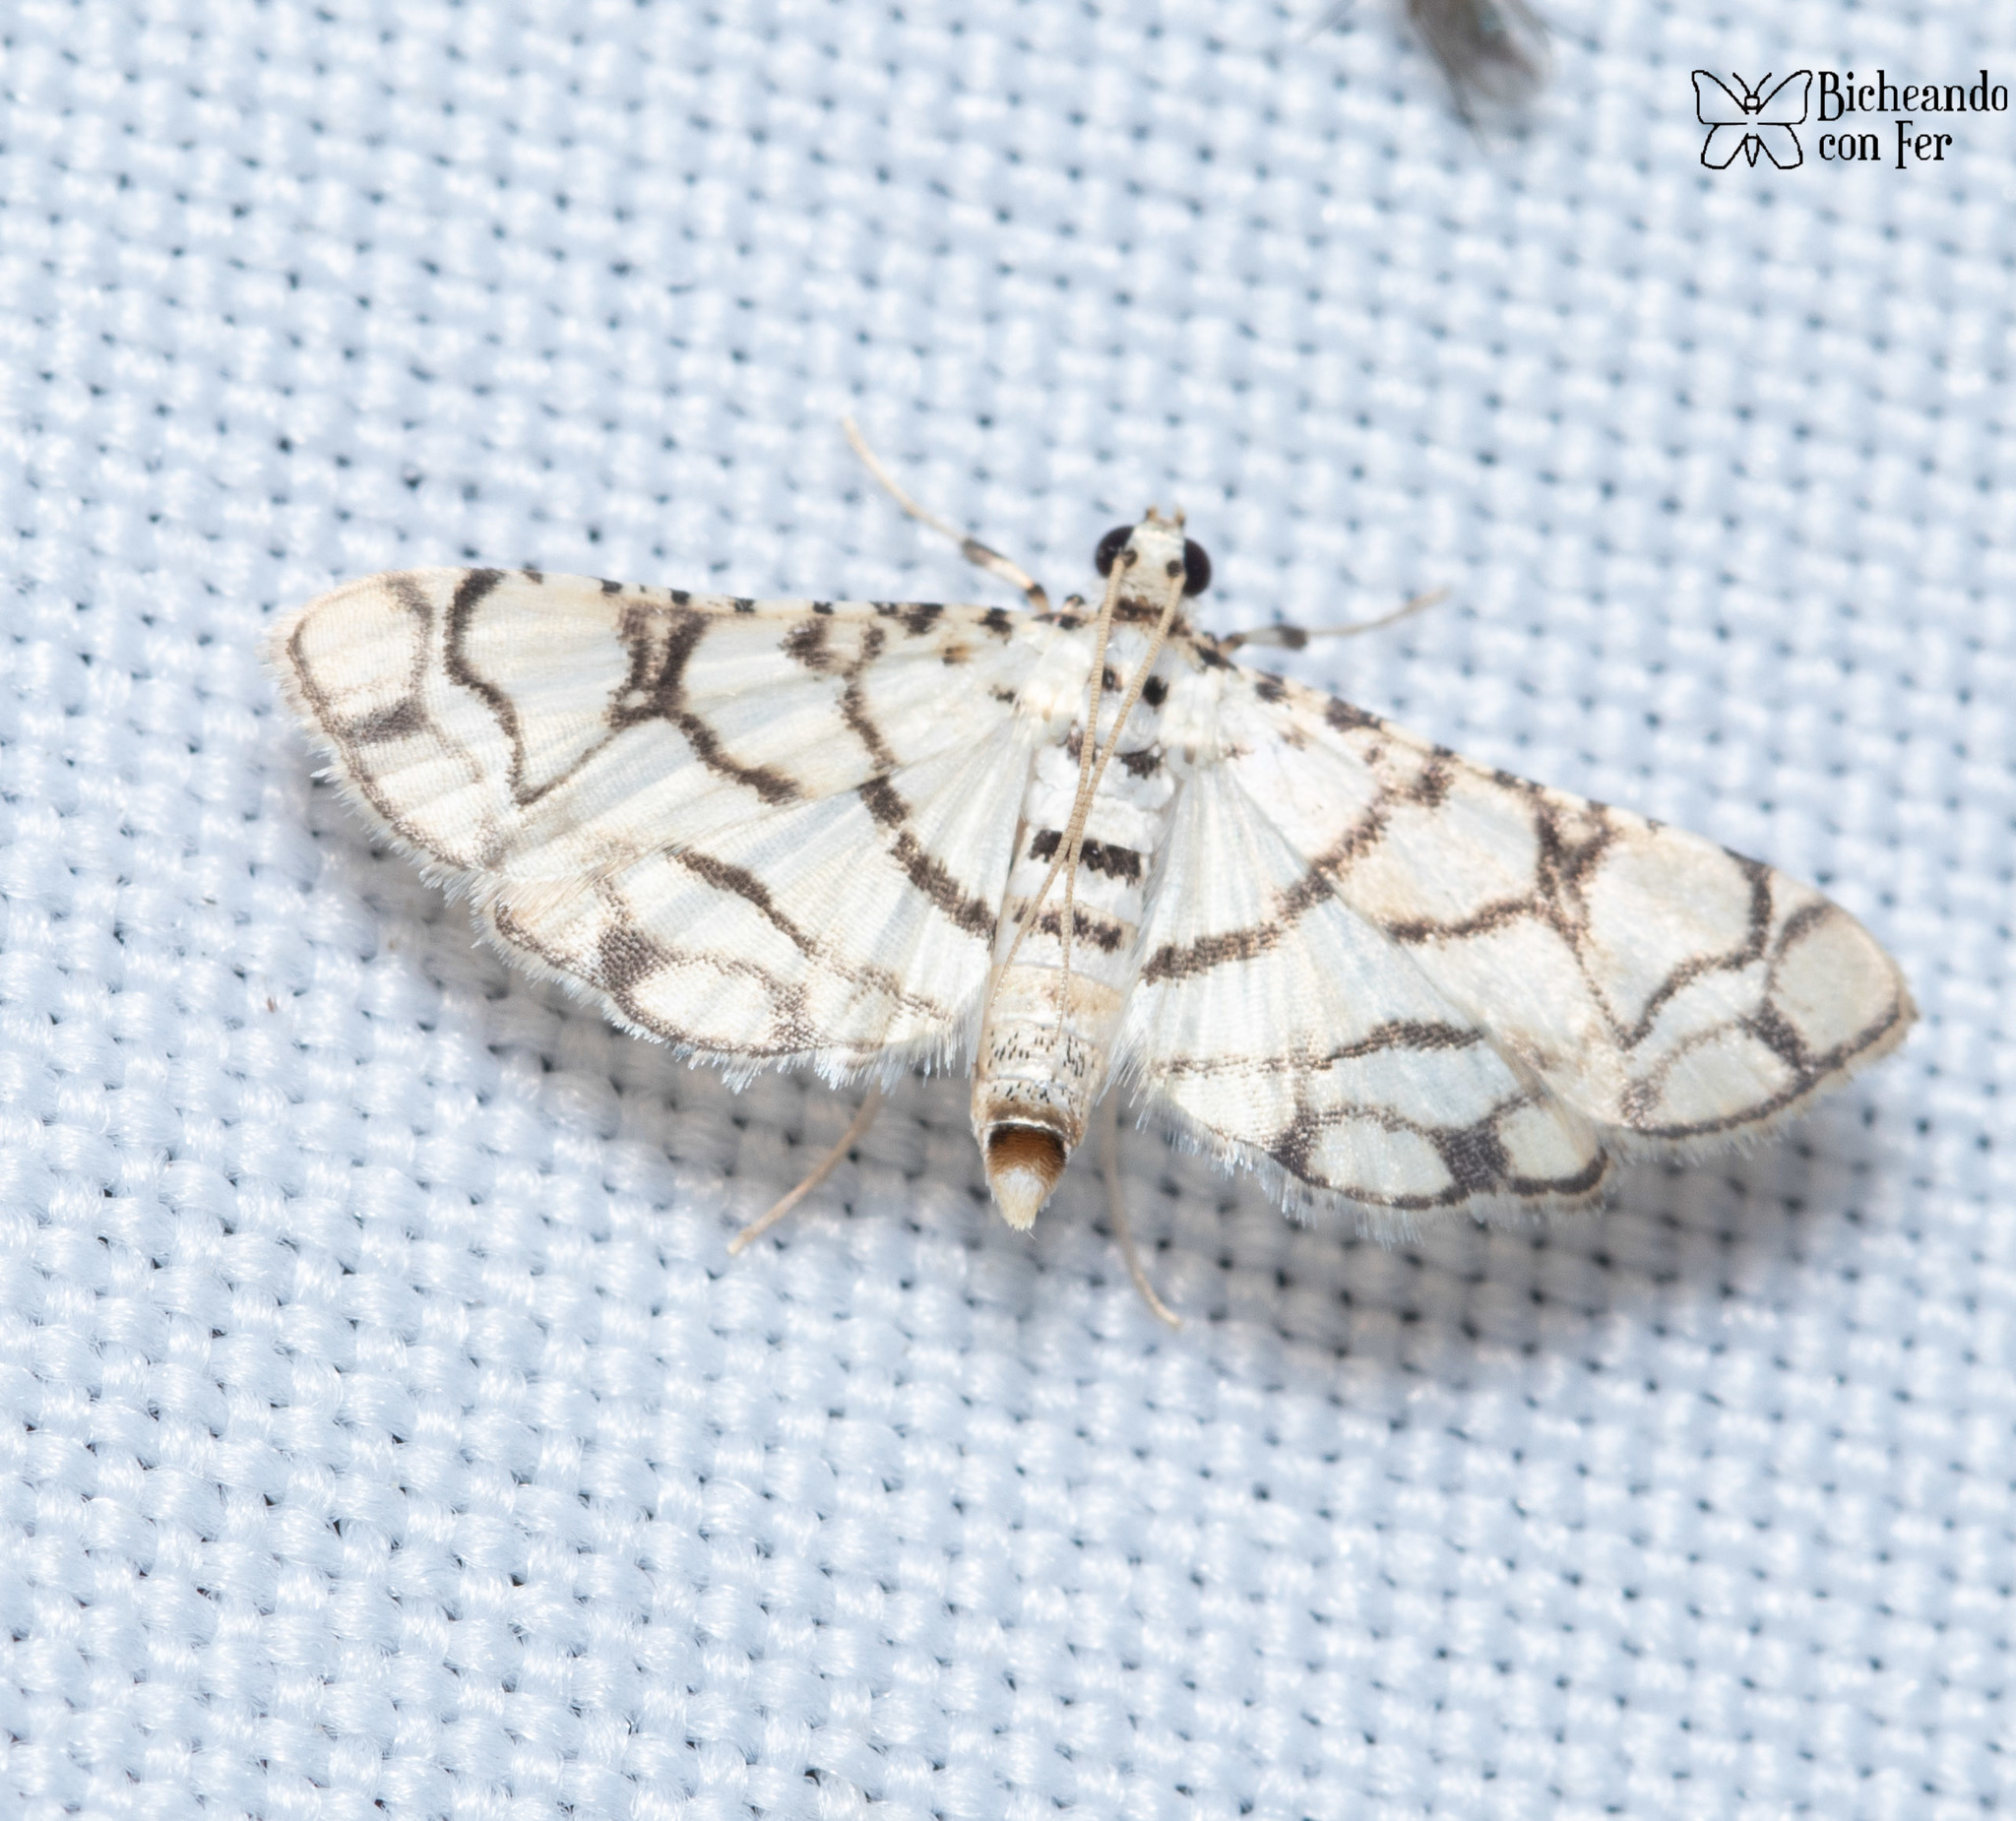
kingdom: Animalia
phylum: Arthropoda
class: Insecta
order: Lepidoptera
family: Crambidae
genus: Hileithia
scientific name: Hileithia rehamalis
